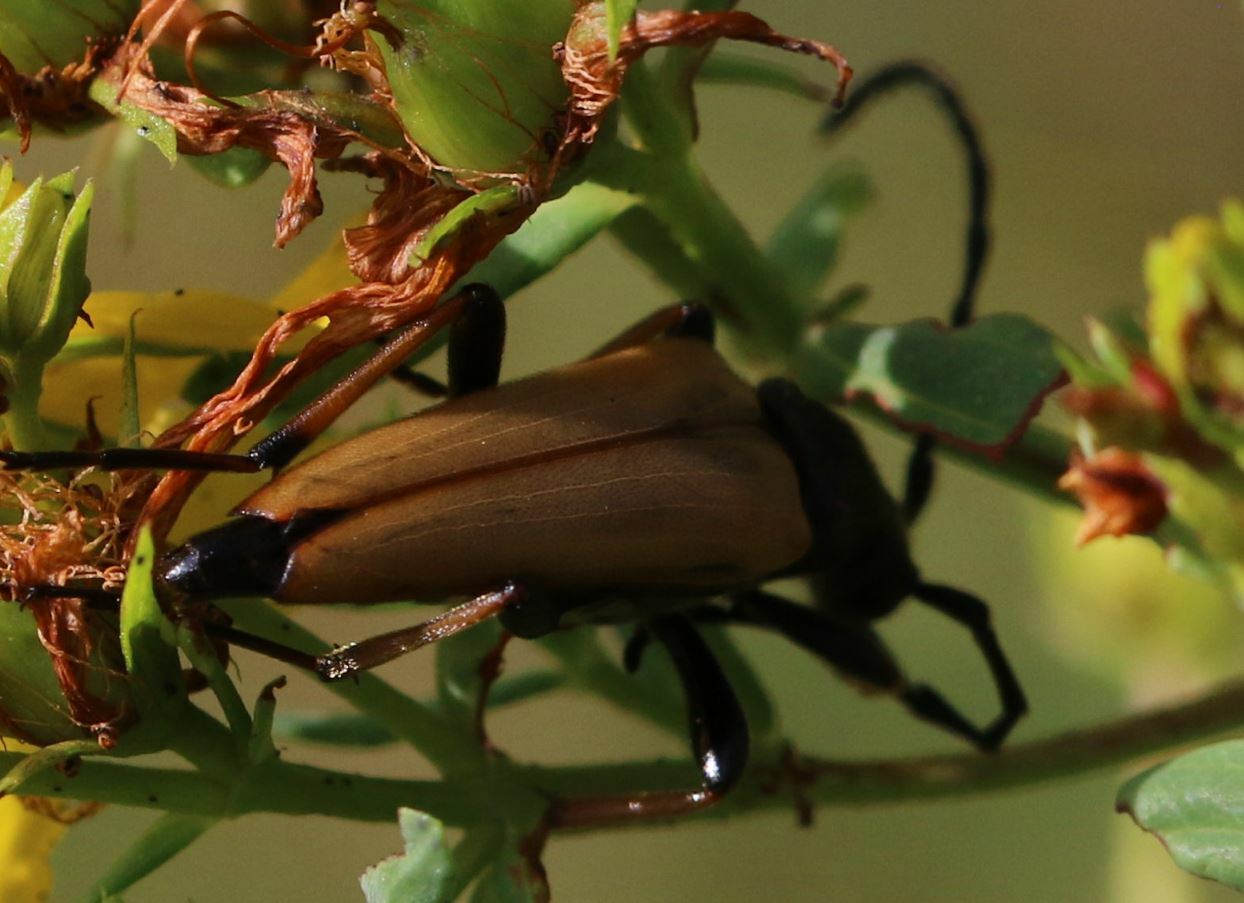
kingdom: Animalia
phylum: Arthropoda
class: Insecta
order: Coleoptera
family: Cerambycidae
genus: Stictoleptura
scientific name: Stictoleptura rubra
